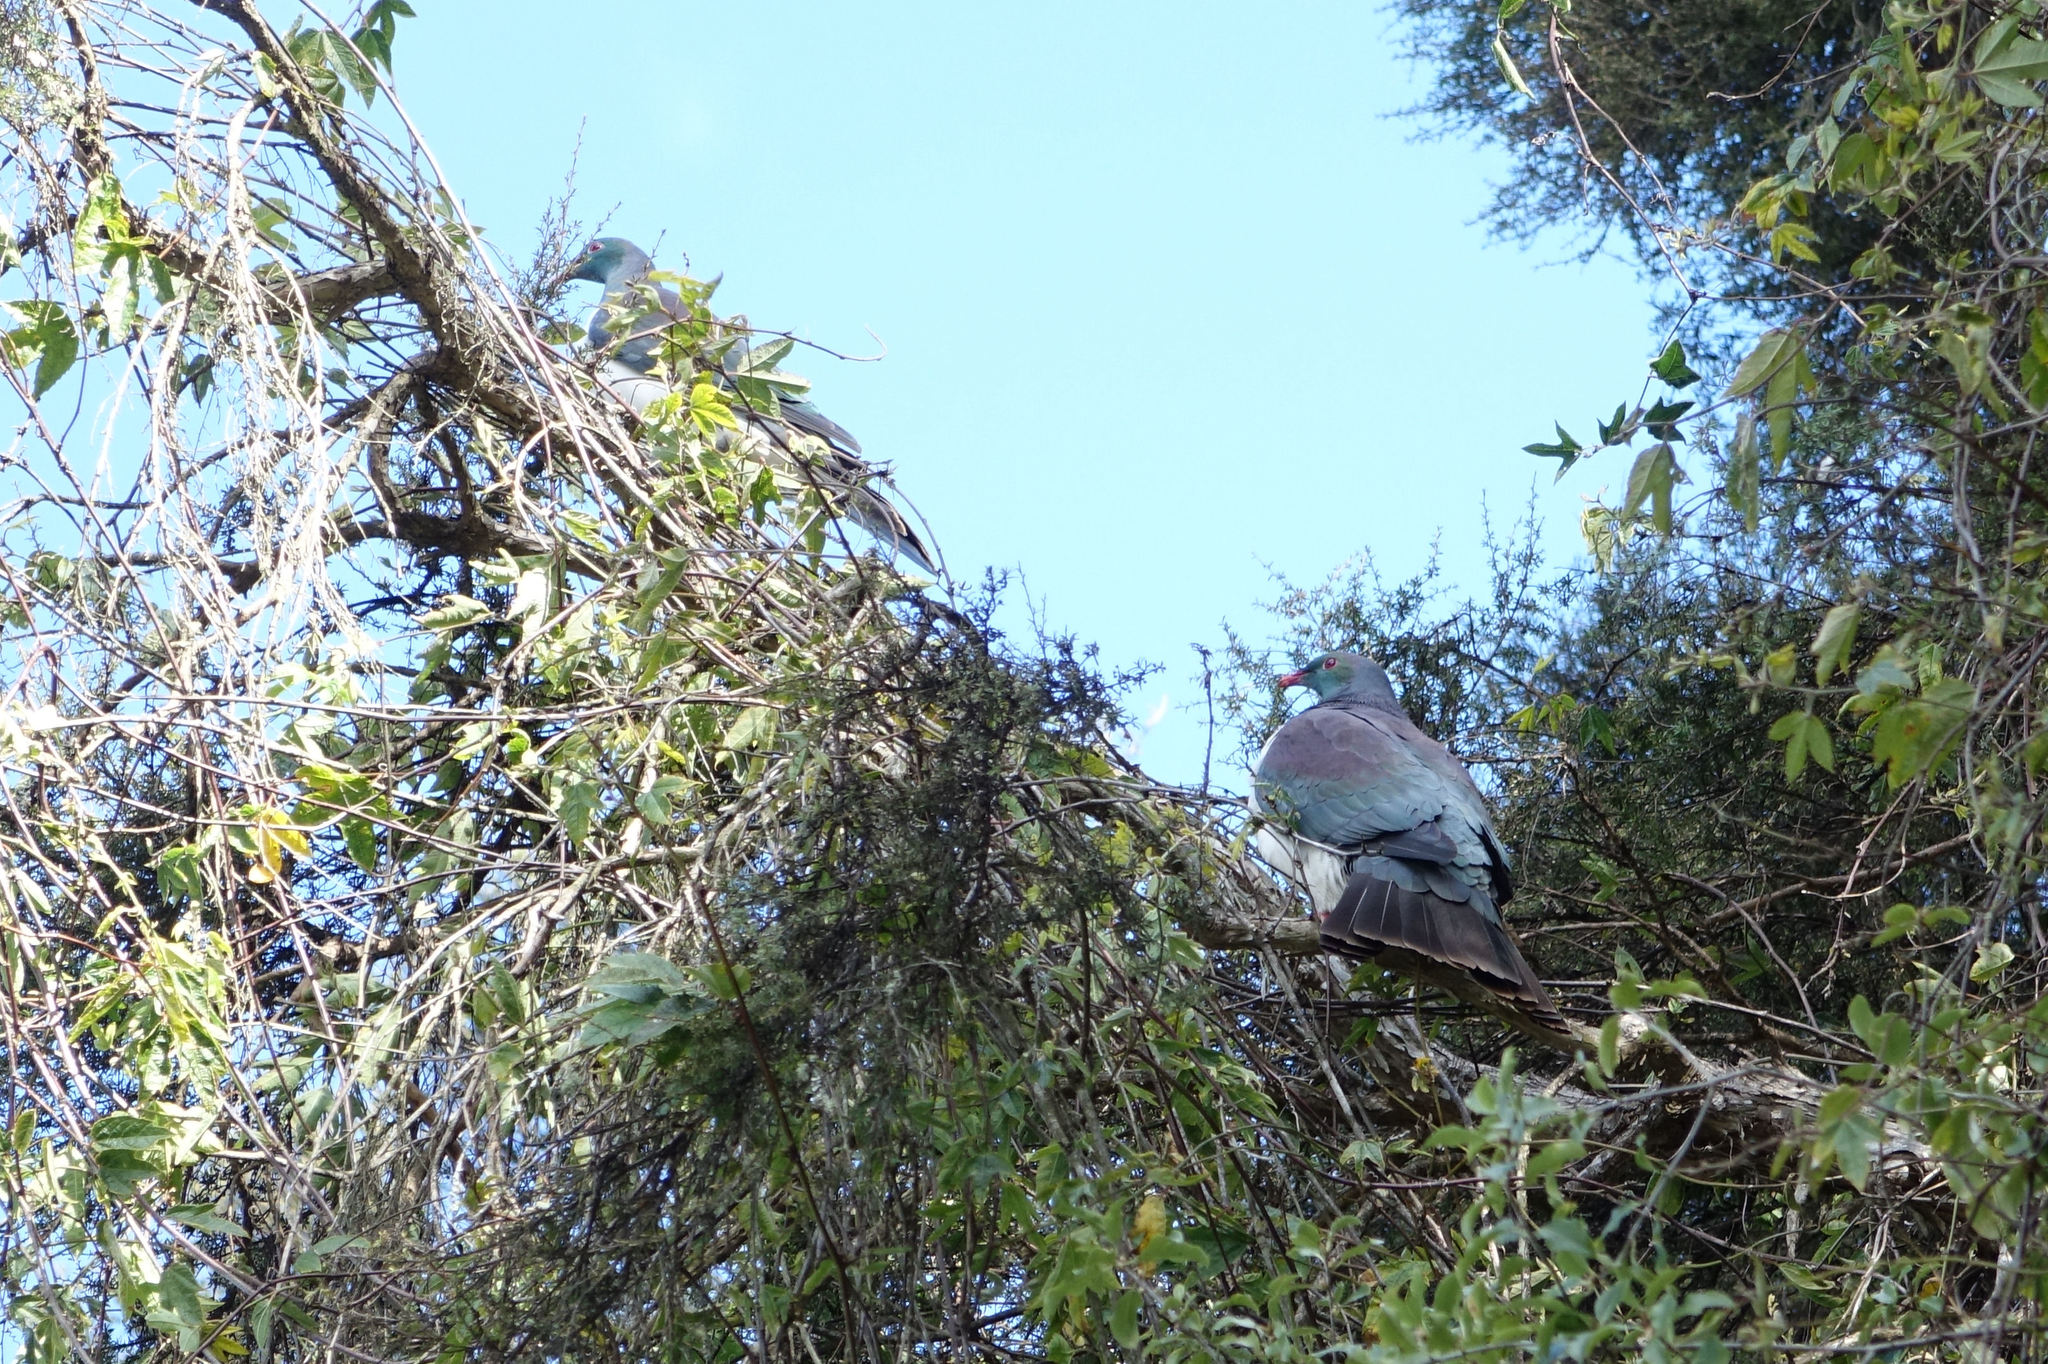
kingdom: Animalia
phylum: Chordata
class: Aves
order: Columbiformes
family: Columbidae
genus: Hemiphaga
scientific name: Hemiphaga novaeseelandiae
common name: New zealand pigeon
